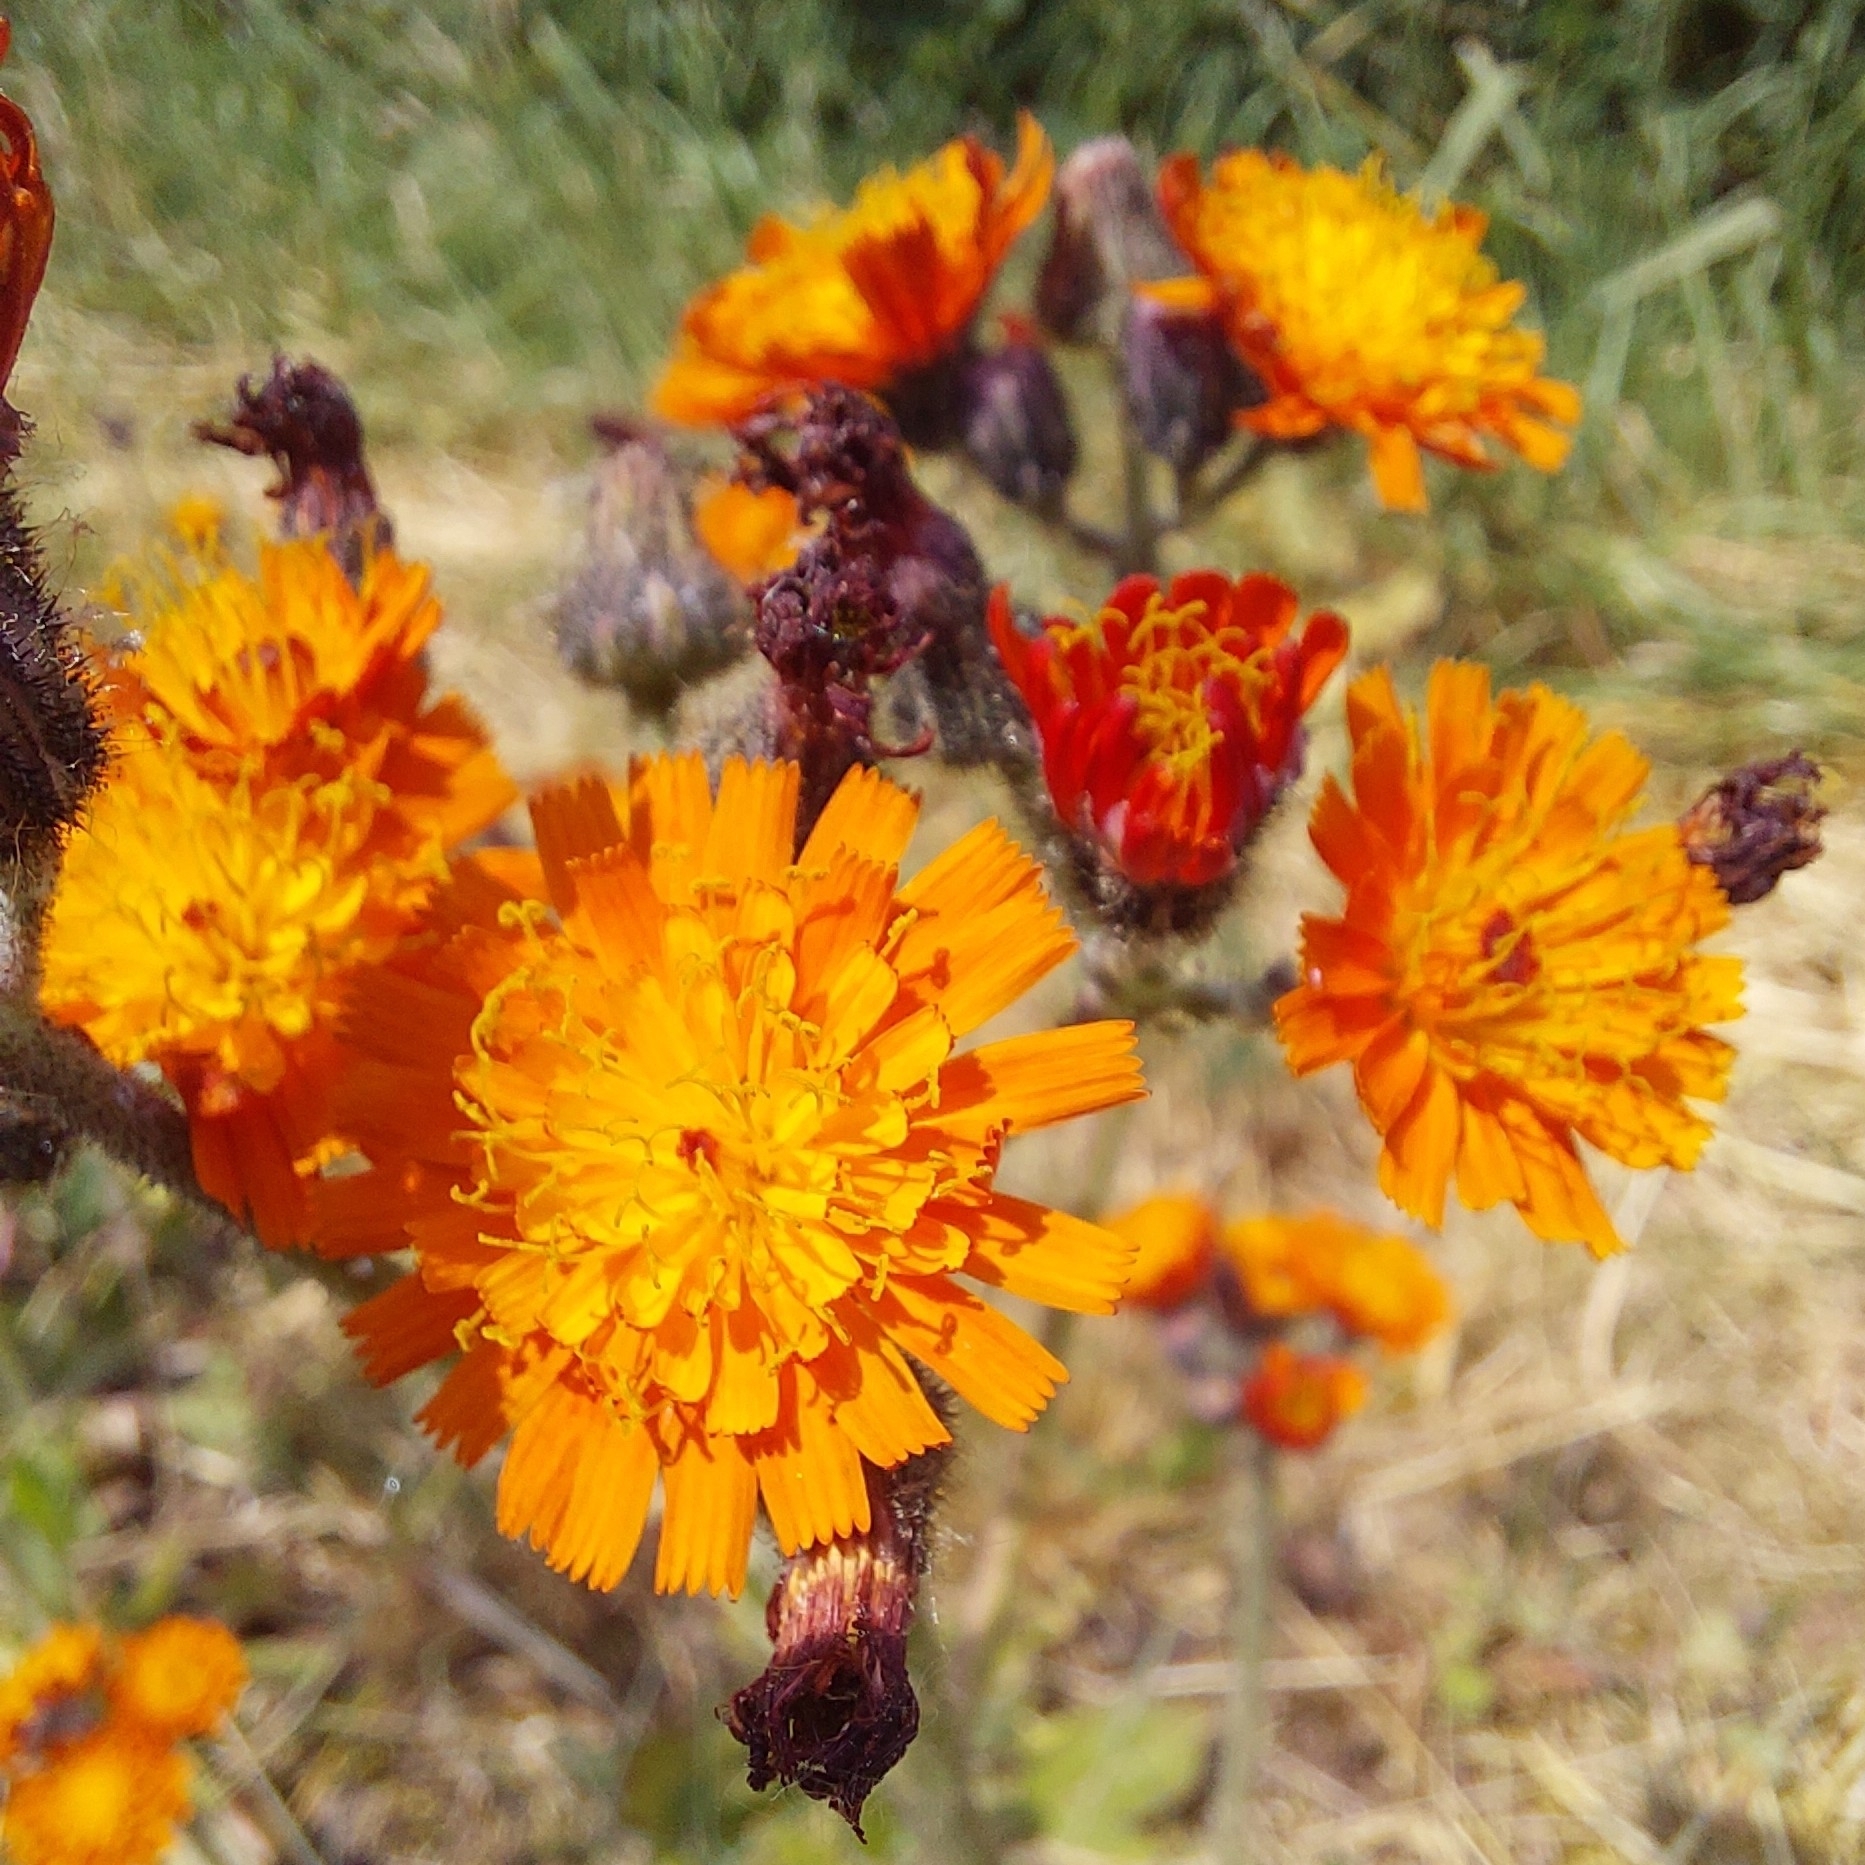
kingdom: Plantae
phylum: Tracheophyta
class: Magnoliopsida
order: Asterales
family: Asteraceae
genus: Pilosella
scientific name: Pilosella aurantiaca
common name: Fox-and-cubs
